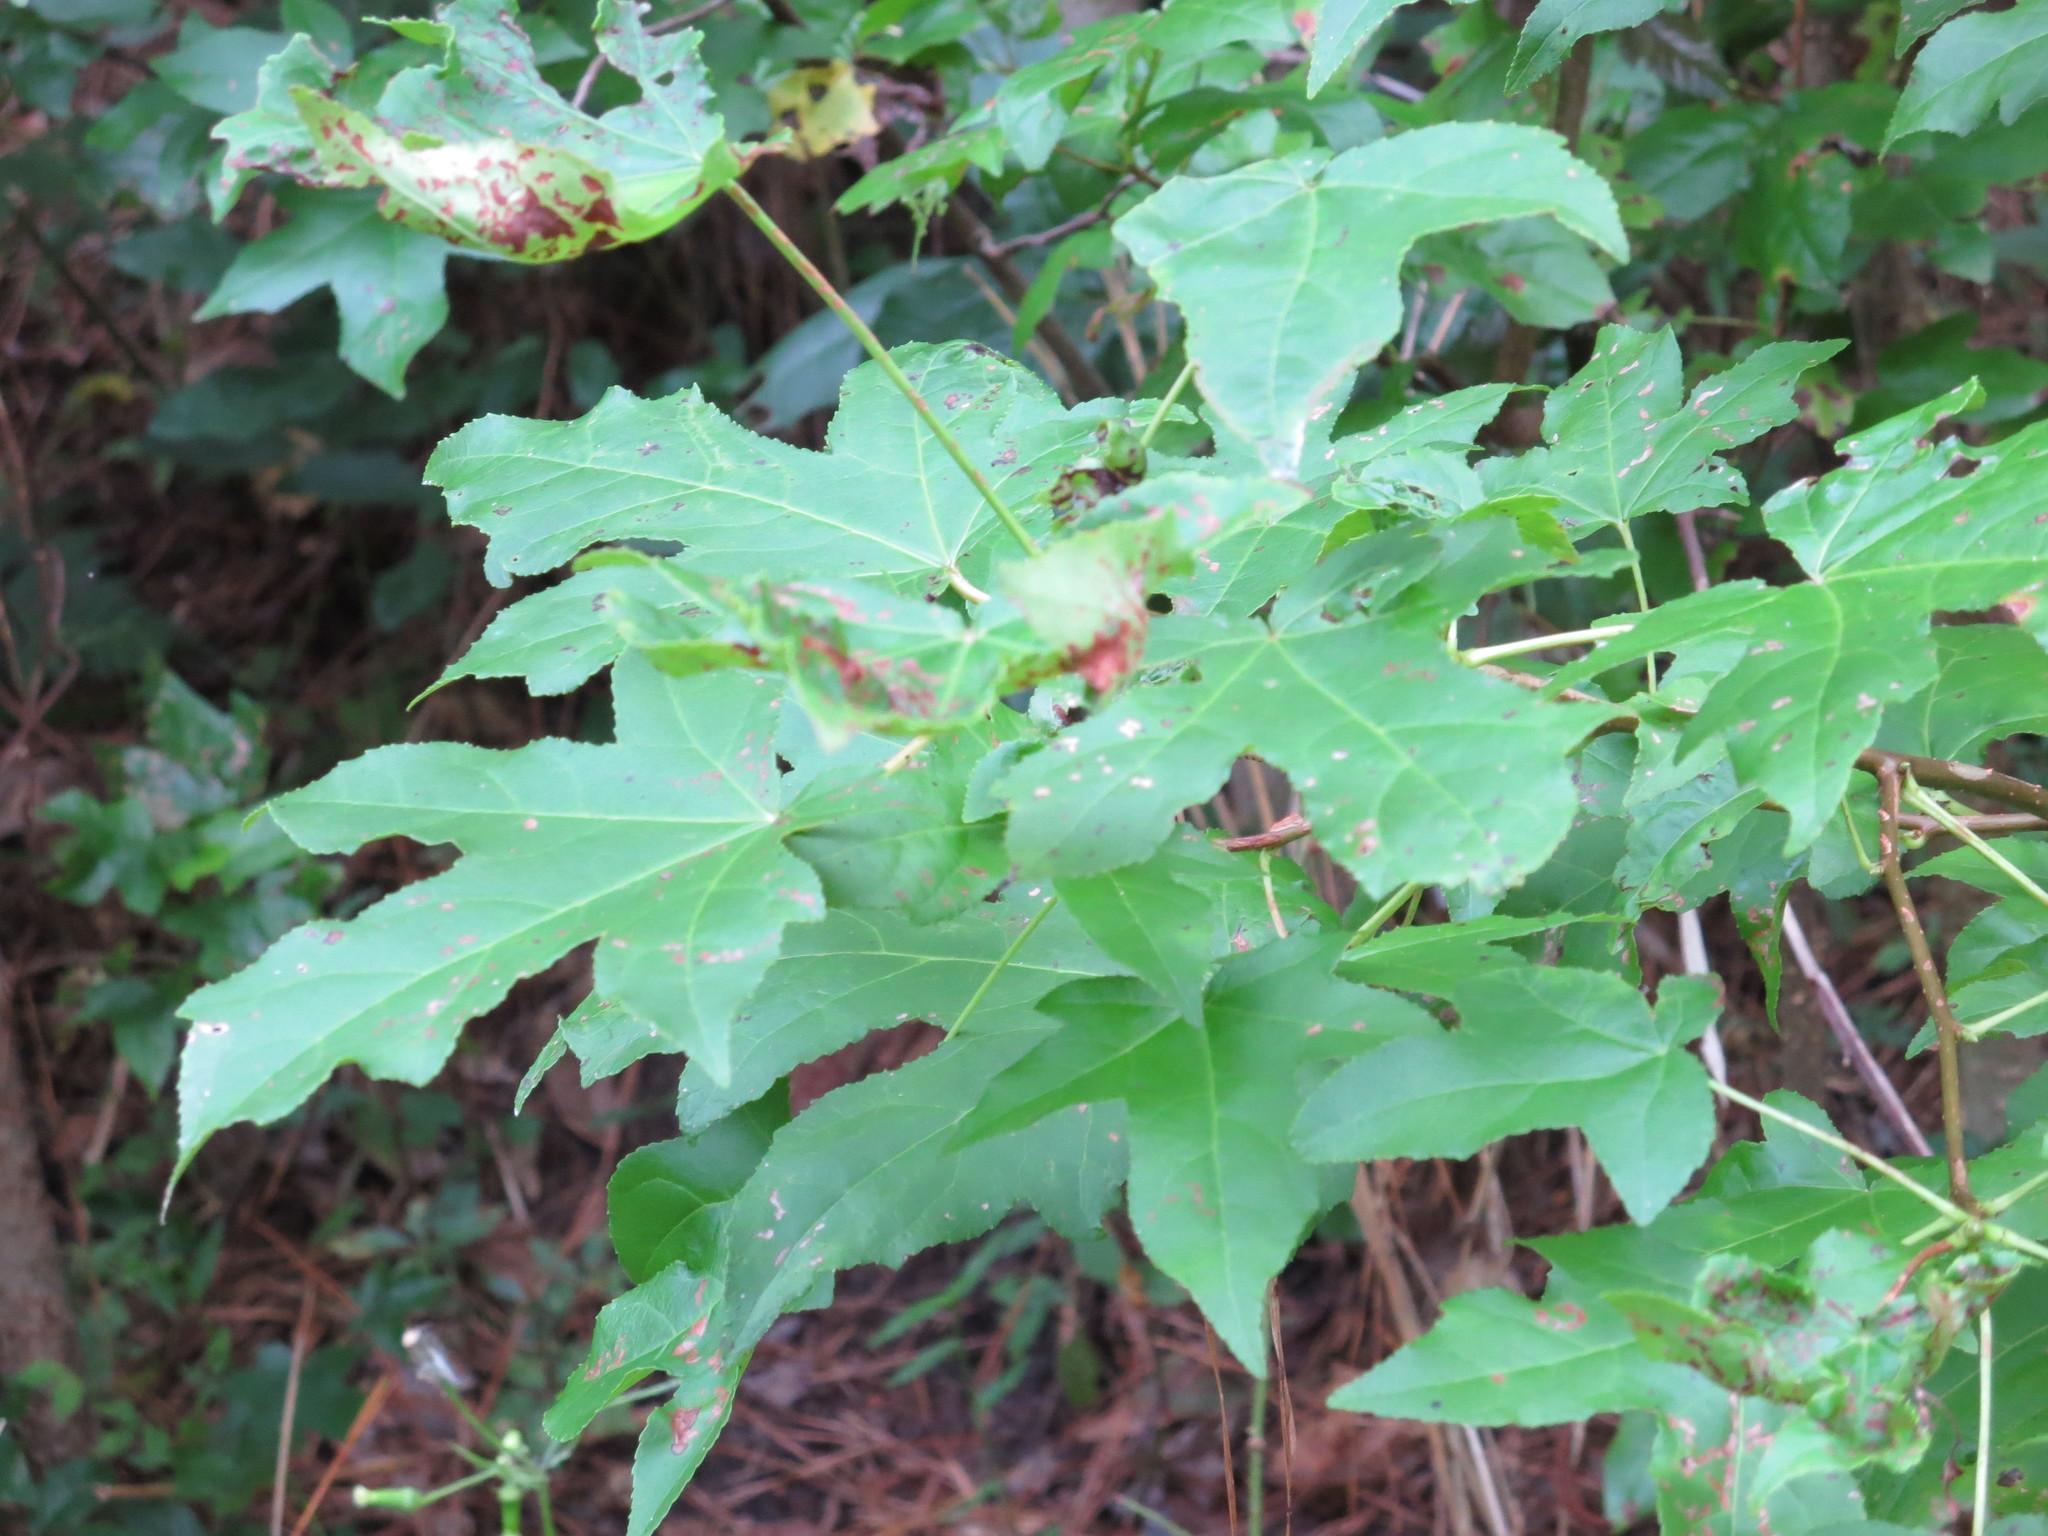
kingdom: Plantae
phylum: Tracheophyta
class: Magnoliopsida
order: Saxifragales
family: Altingiaceae
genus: Liquidambar
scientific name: Liquidambar styraciflua
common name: Sweet gum
